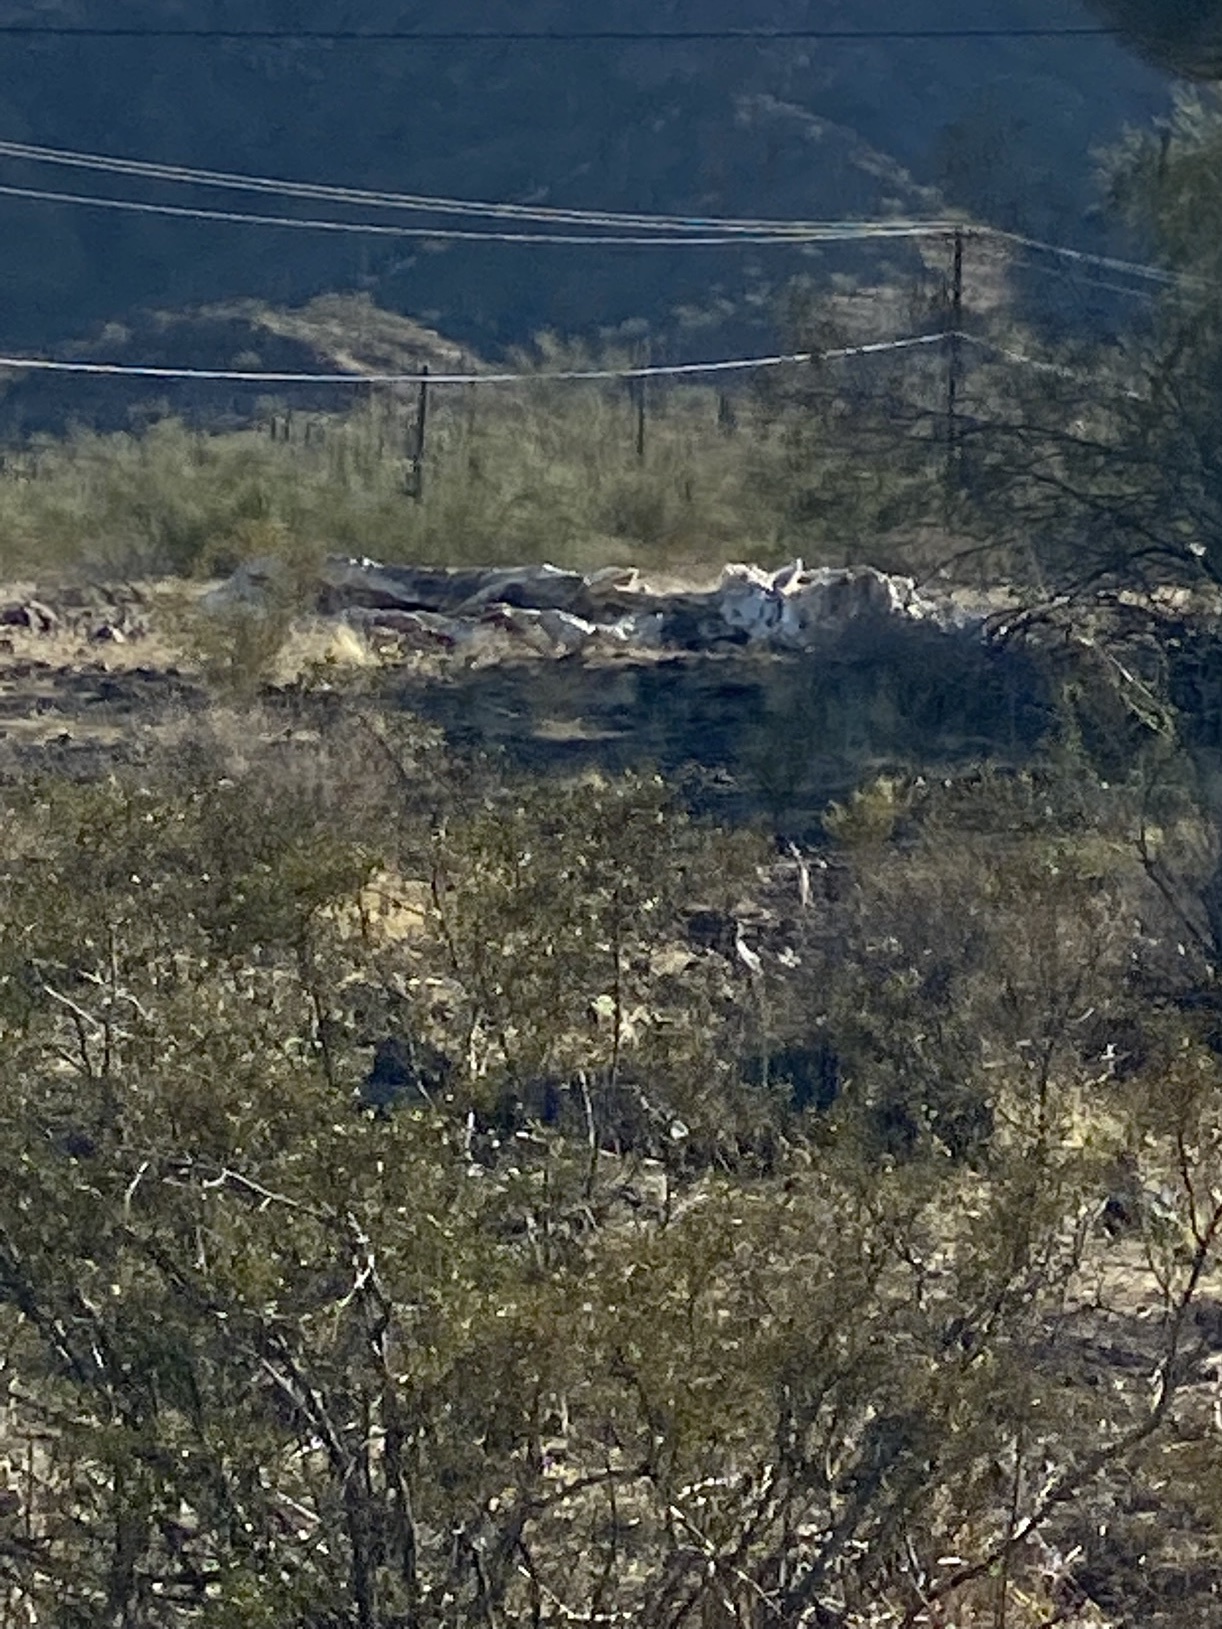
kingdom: Plantae
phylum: Tracheophyta
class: Magnoliopsida
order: Zygophyllales
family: Zygophyllaceae
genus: Larrea
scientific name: Larrea tridentata
